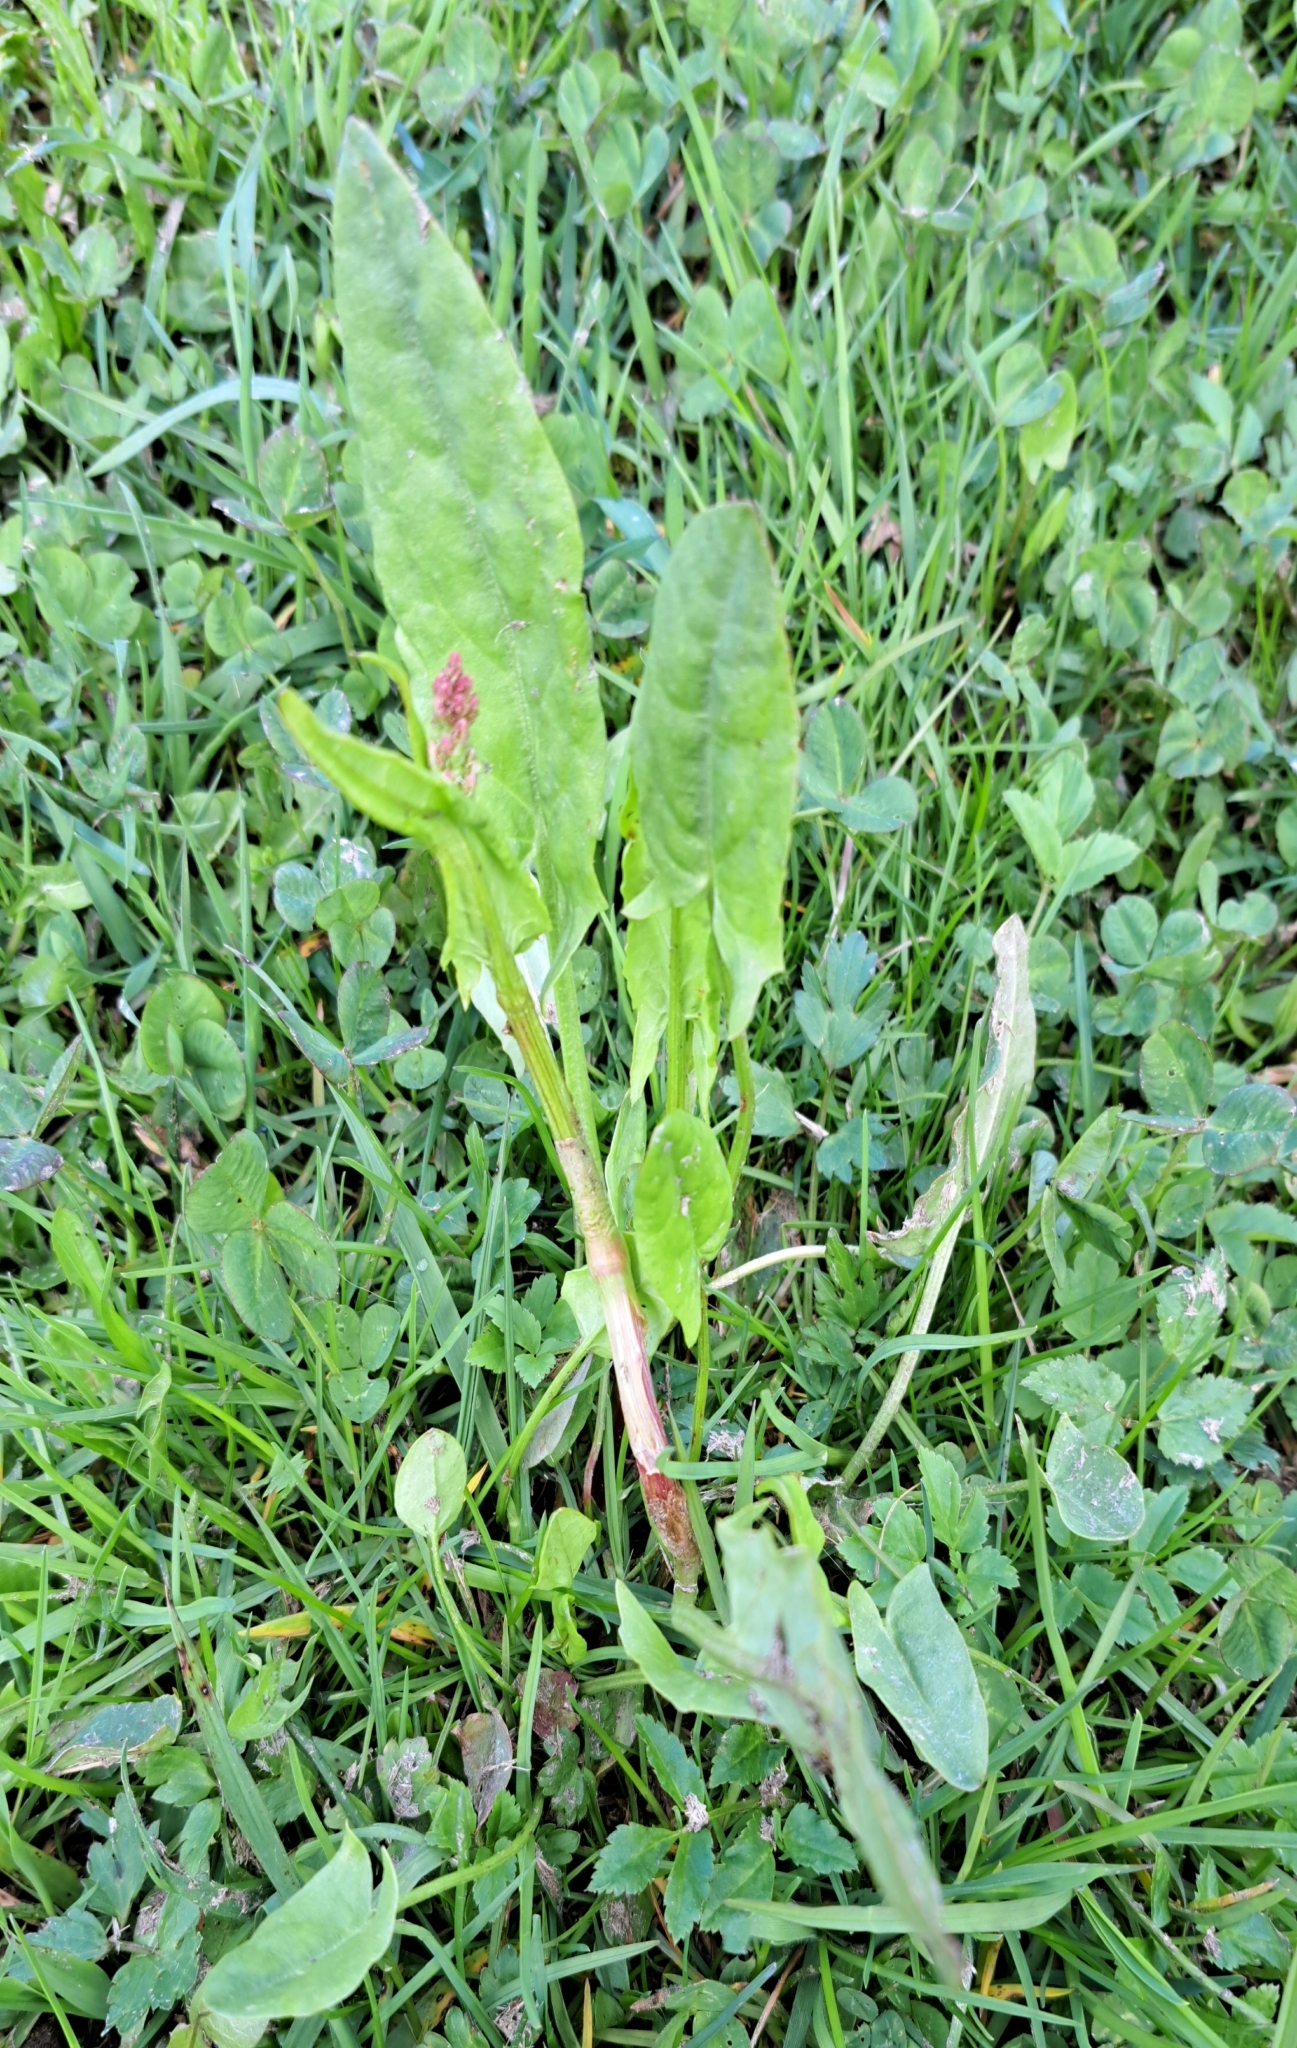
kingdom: Plantae
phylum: Tracheophyta
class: Magnoliopsida
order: Caryophyllales
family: Polygonaceae
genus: Rumex
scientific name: Rumex acetosa
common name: Garden sorrel
